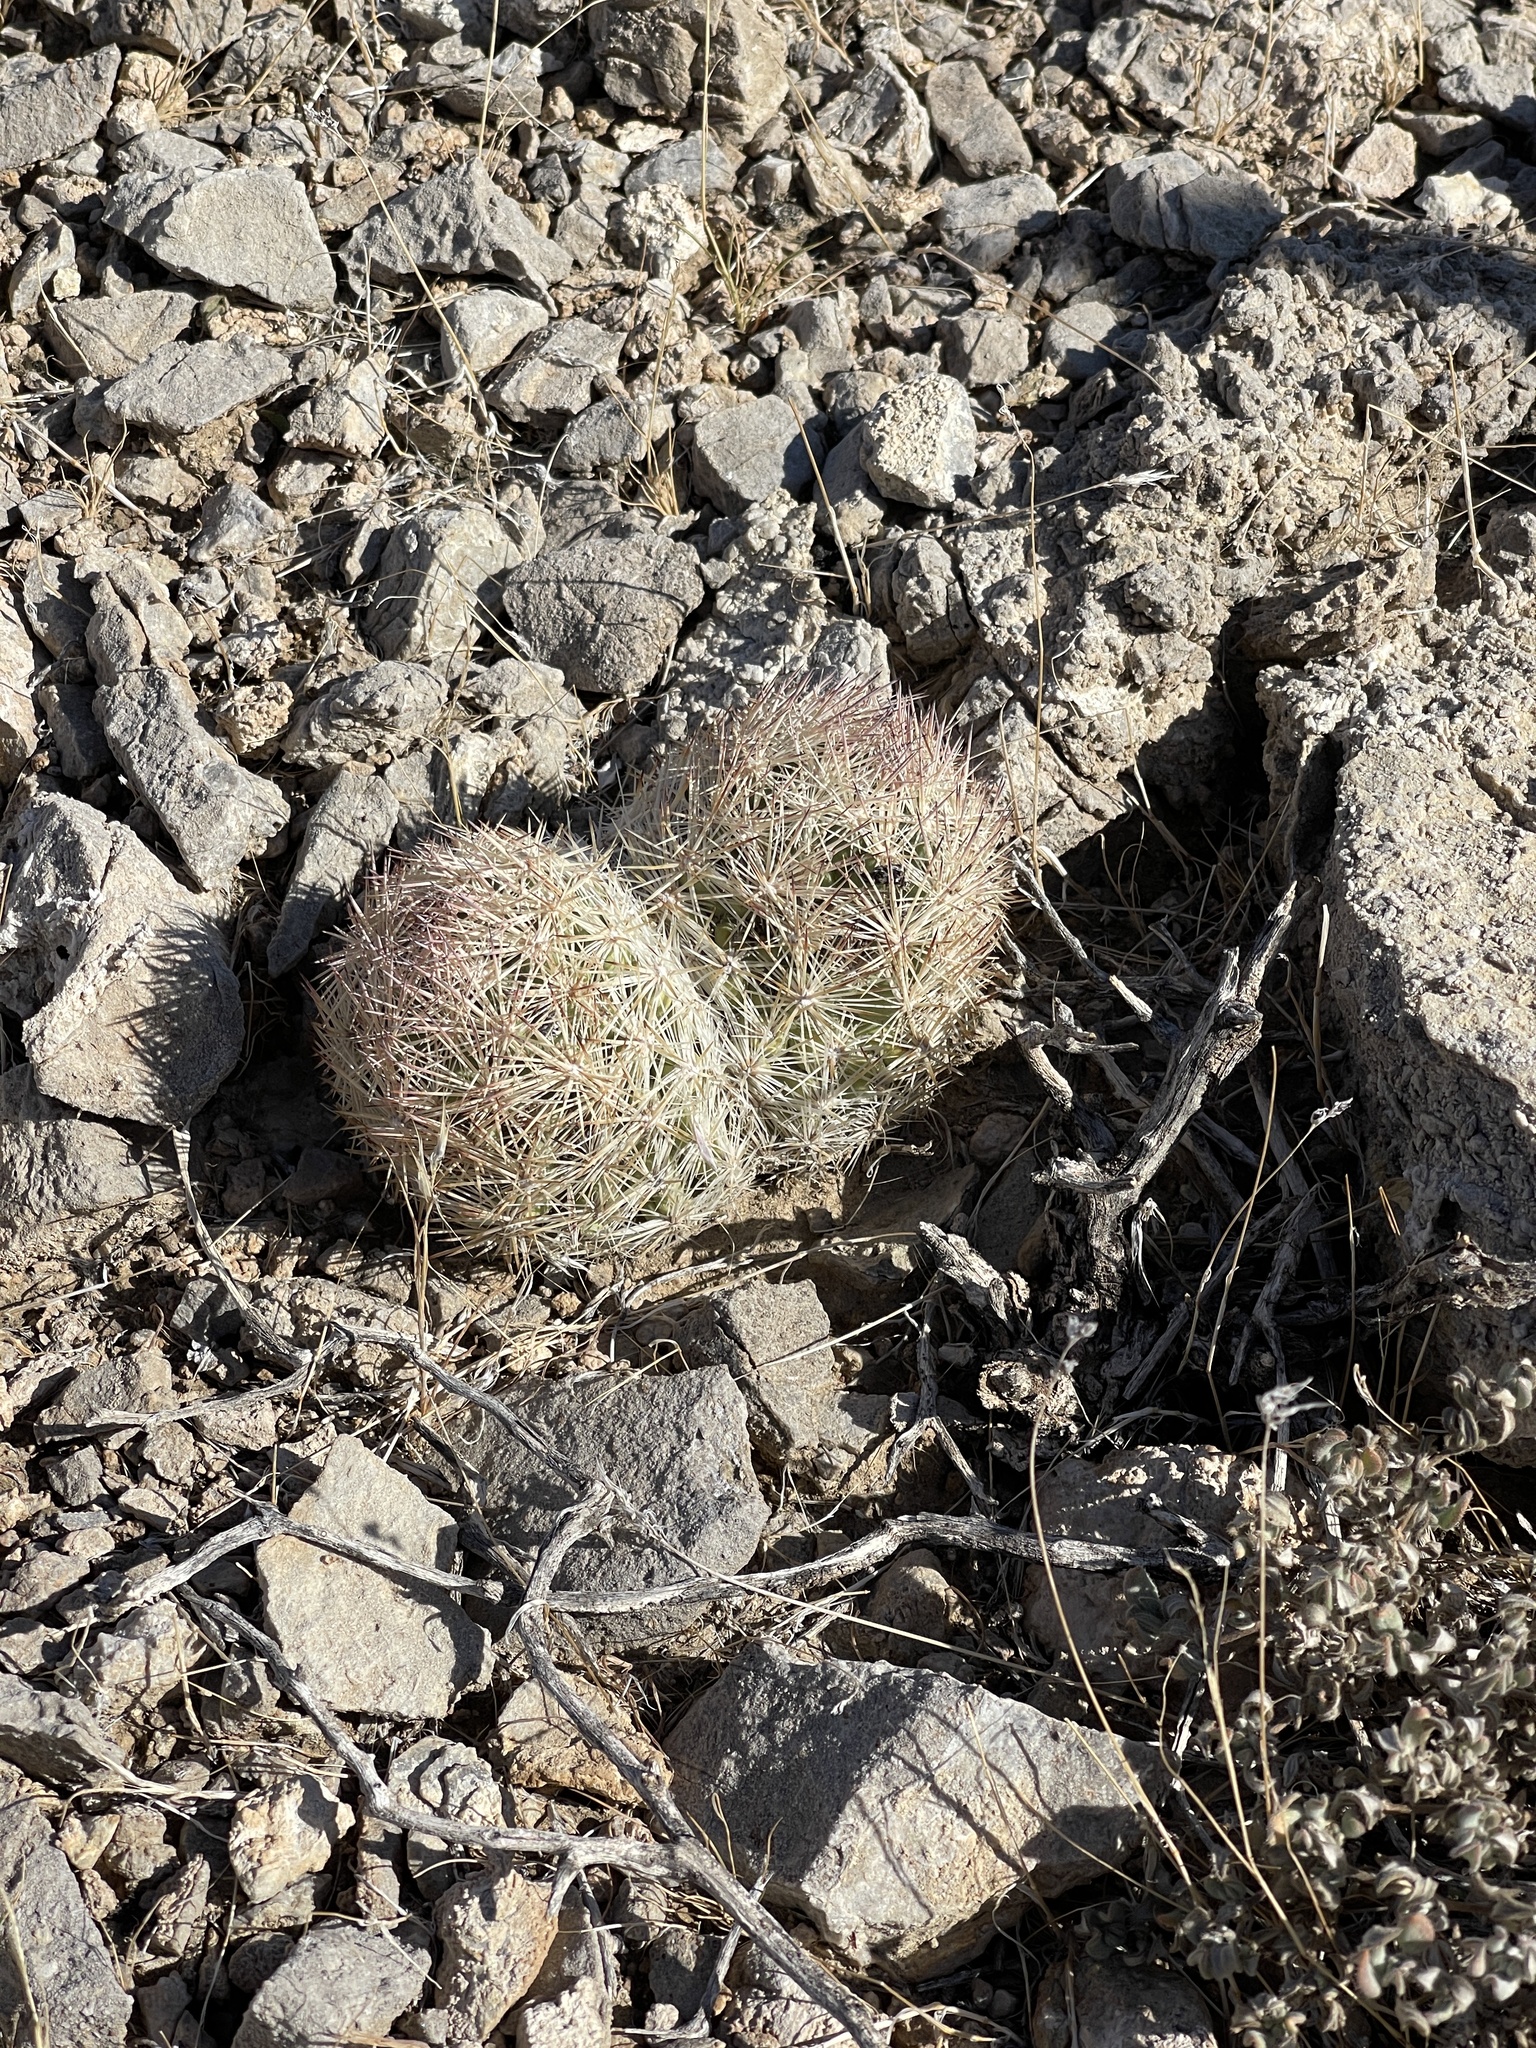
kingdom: Plantae
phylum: Tracheophyta
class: Magnoliopsida
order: Caryophyllales
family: Cactaceae
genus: Pelecyphora
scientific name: Pelecyphora dasyacantha
